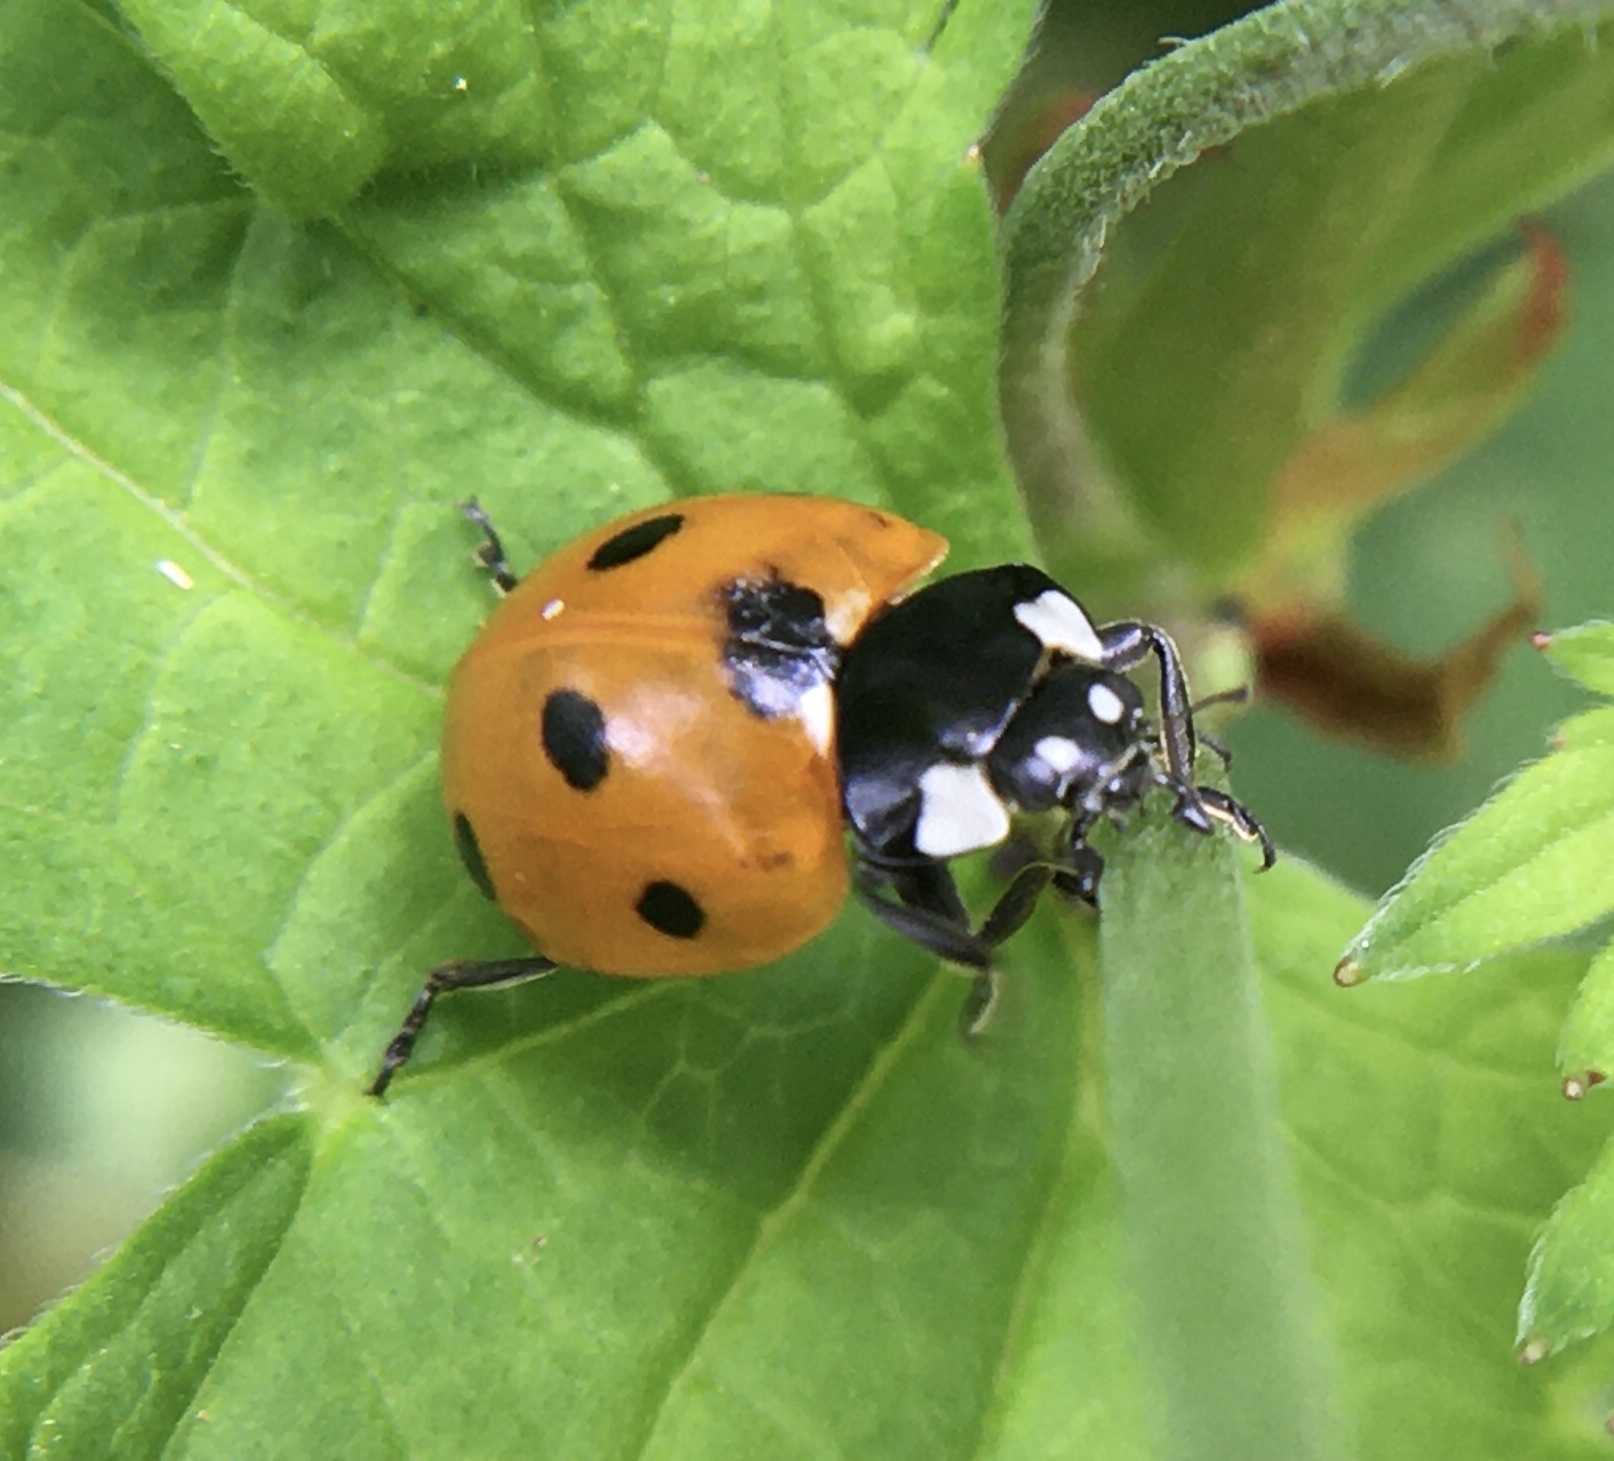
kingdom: Animalia
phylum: Arthropoda
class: Insecta
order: Coleoptera
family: Coccinellidae
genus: Coccinella
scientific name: Coccinella septempunctata
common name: Sevenspotted lady beetle
